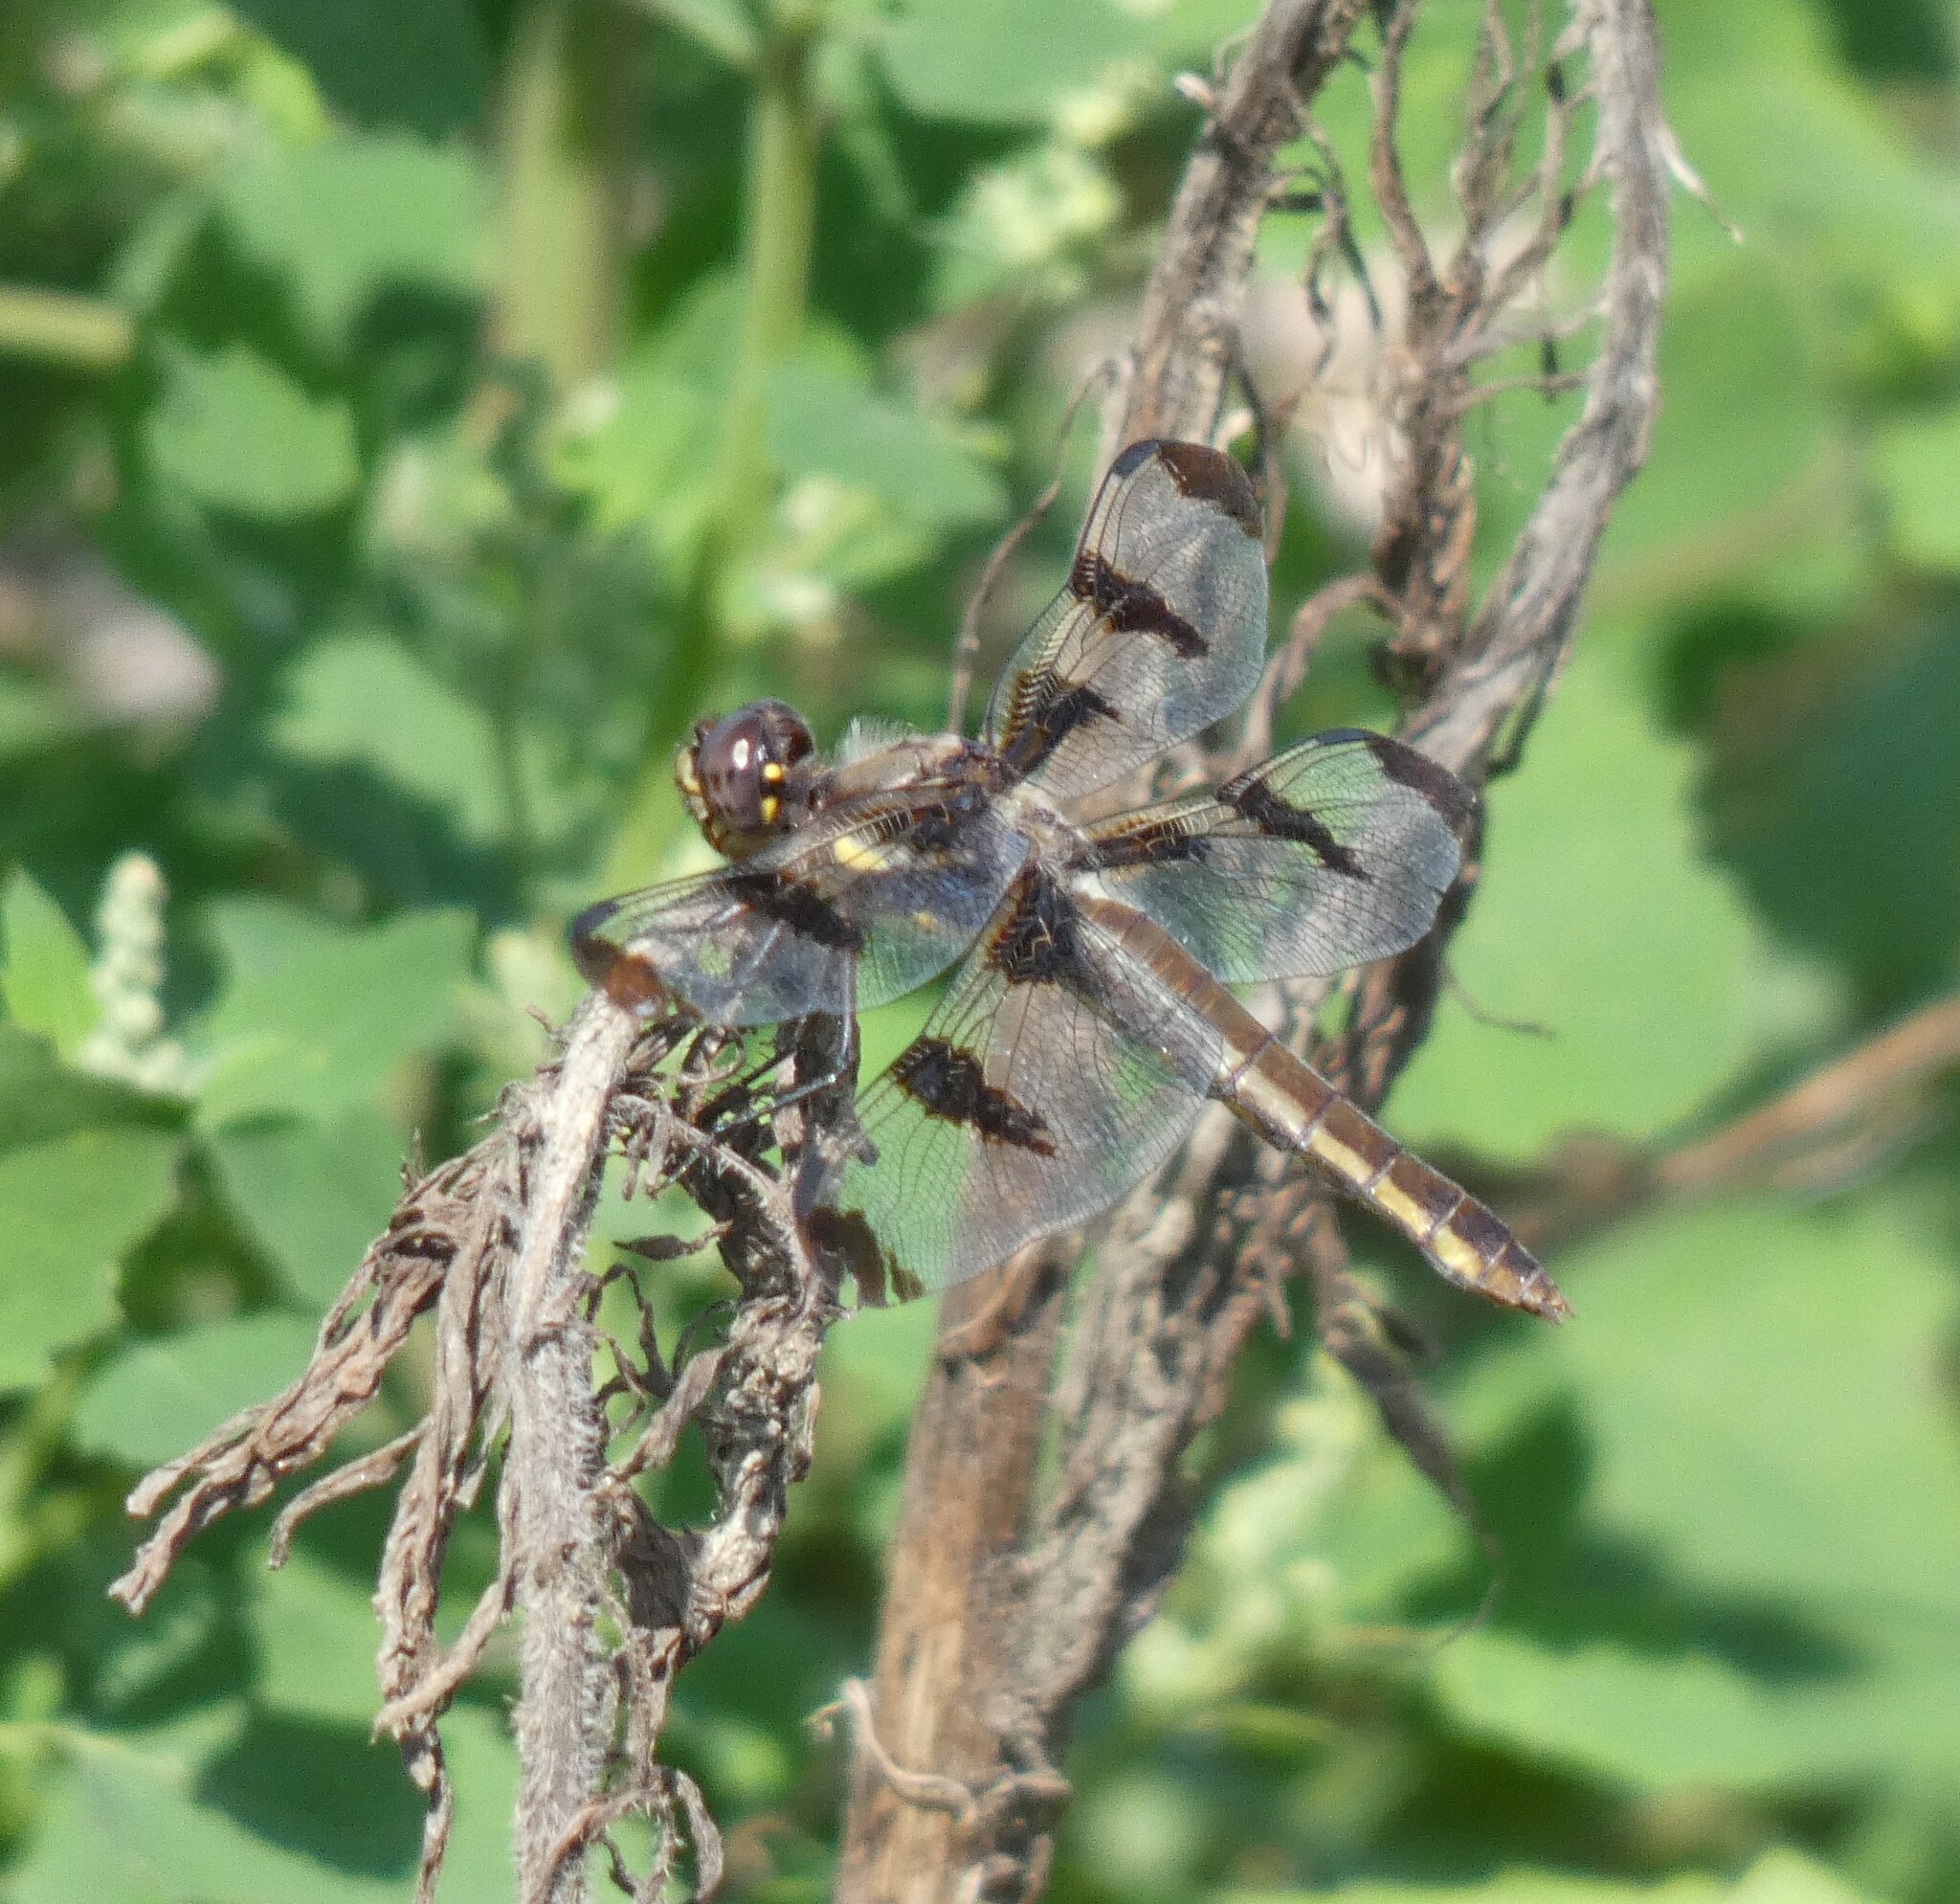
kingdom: Animalia
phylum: Arthropoda
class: Insecta
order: Odonata
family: Libellulidae
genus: Libellula
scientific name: Libellula pulchella
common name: Twelve-spotted skimmer
